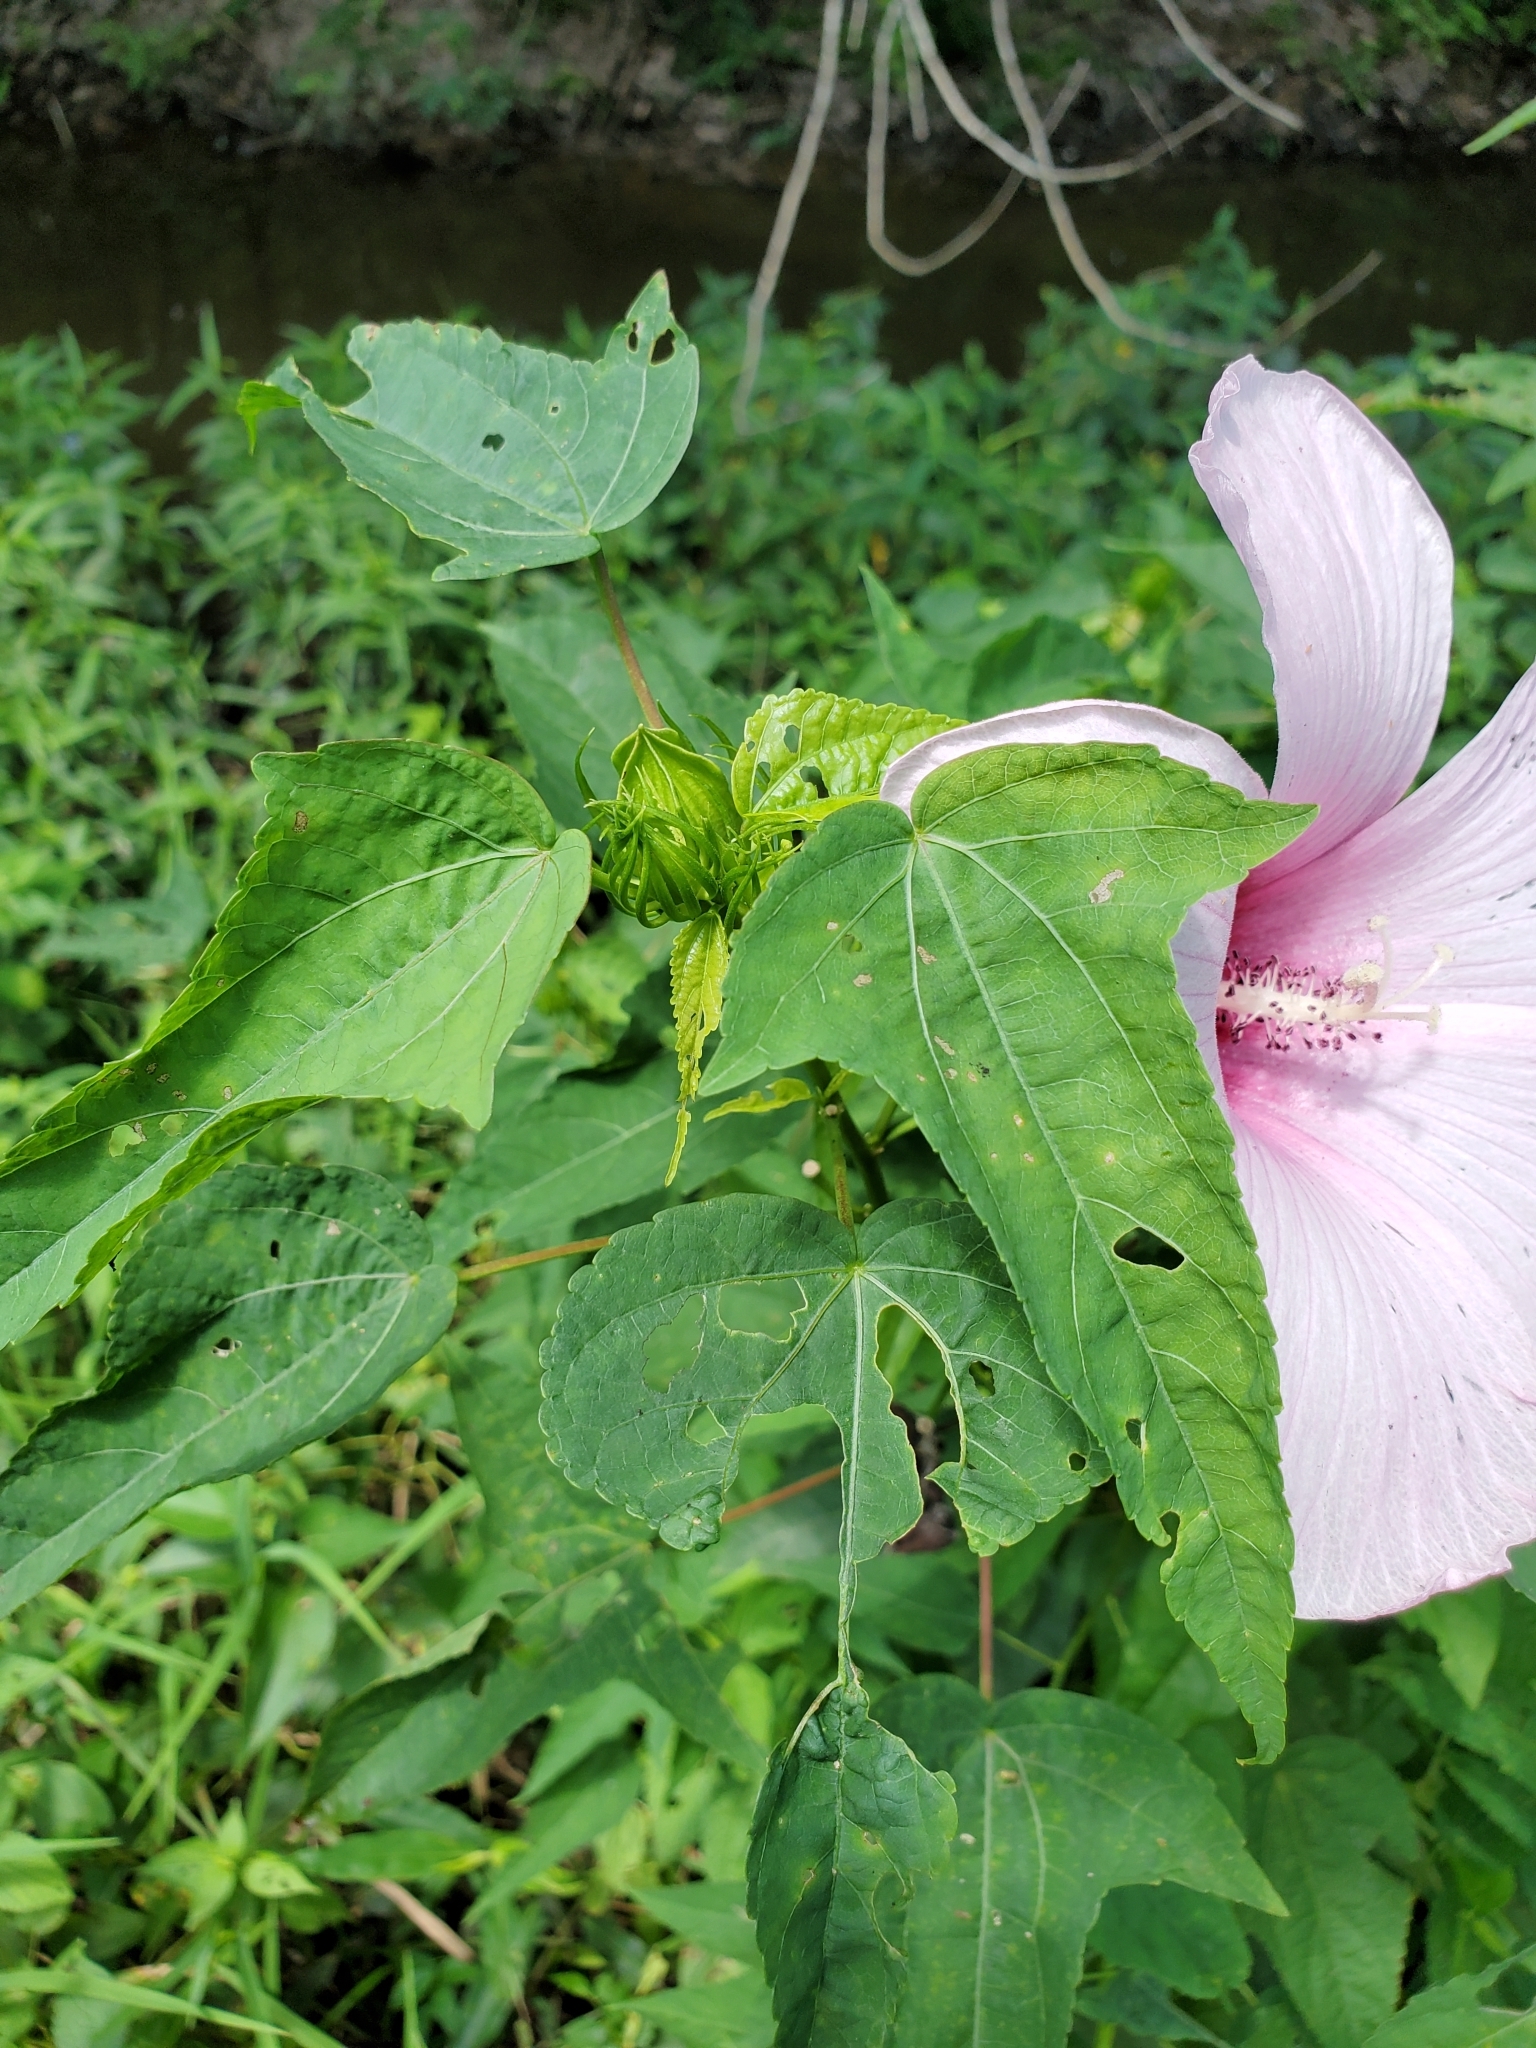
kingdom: Plantae
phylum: Tracheophyta
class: Magnoliopsida
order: Malvales
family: Malvaceae
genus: Hibiscus
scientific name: Hibiscus laevis
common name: Scarlet rose-mallow
